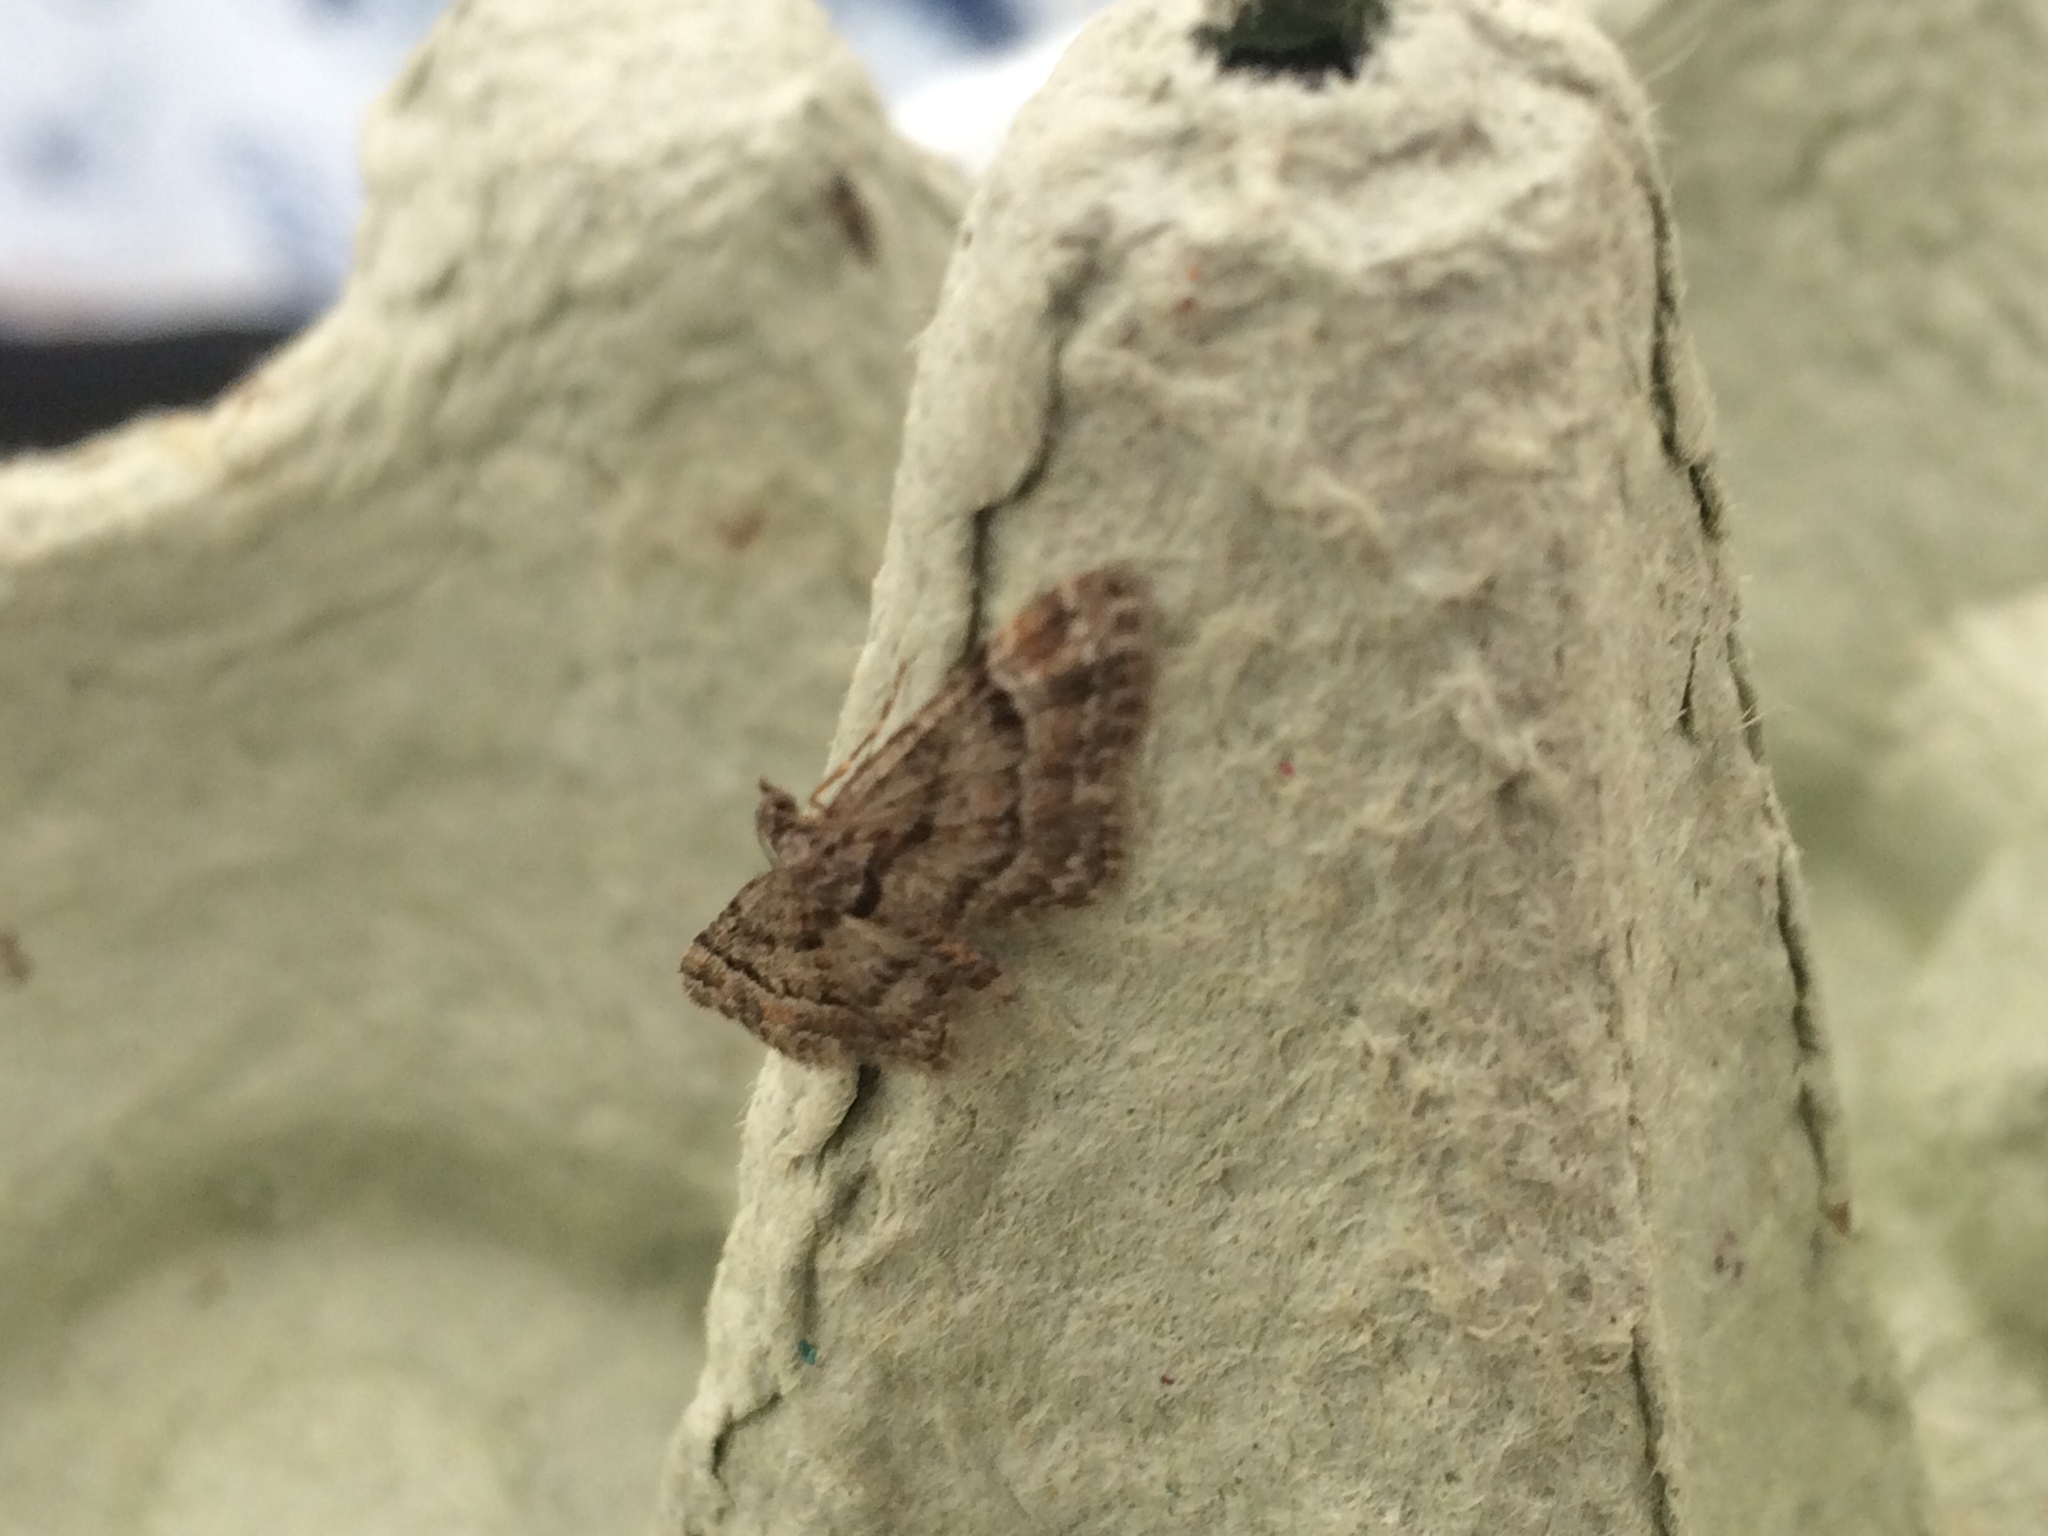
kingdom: Animalia
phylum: Arthropoda
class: Insecta
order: Lepidoptera
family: Geometridae
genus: Gymnoscelis
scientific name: Gymnoscelis rufifasciata
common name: Double-striped pug
